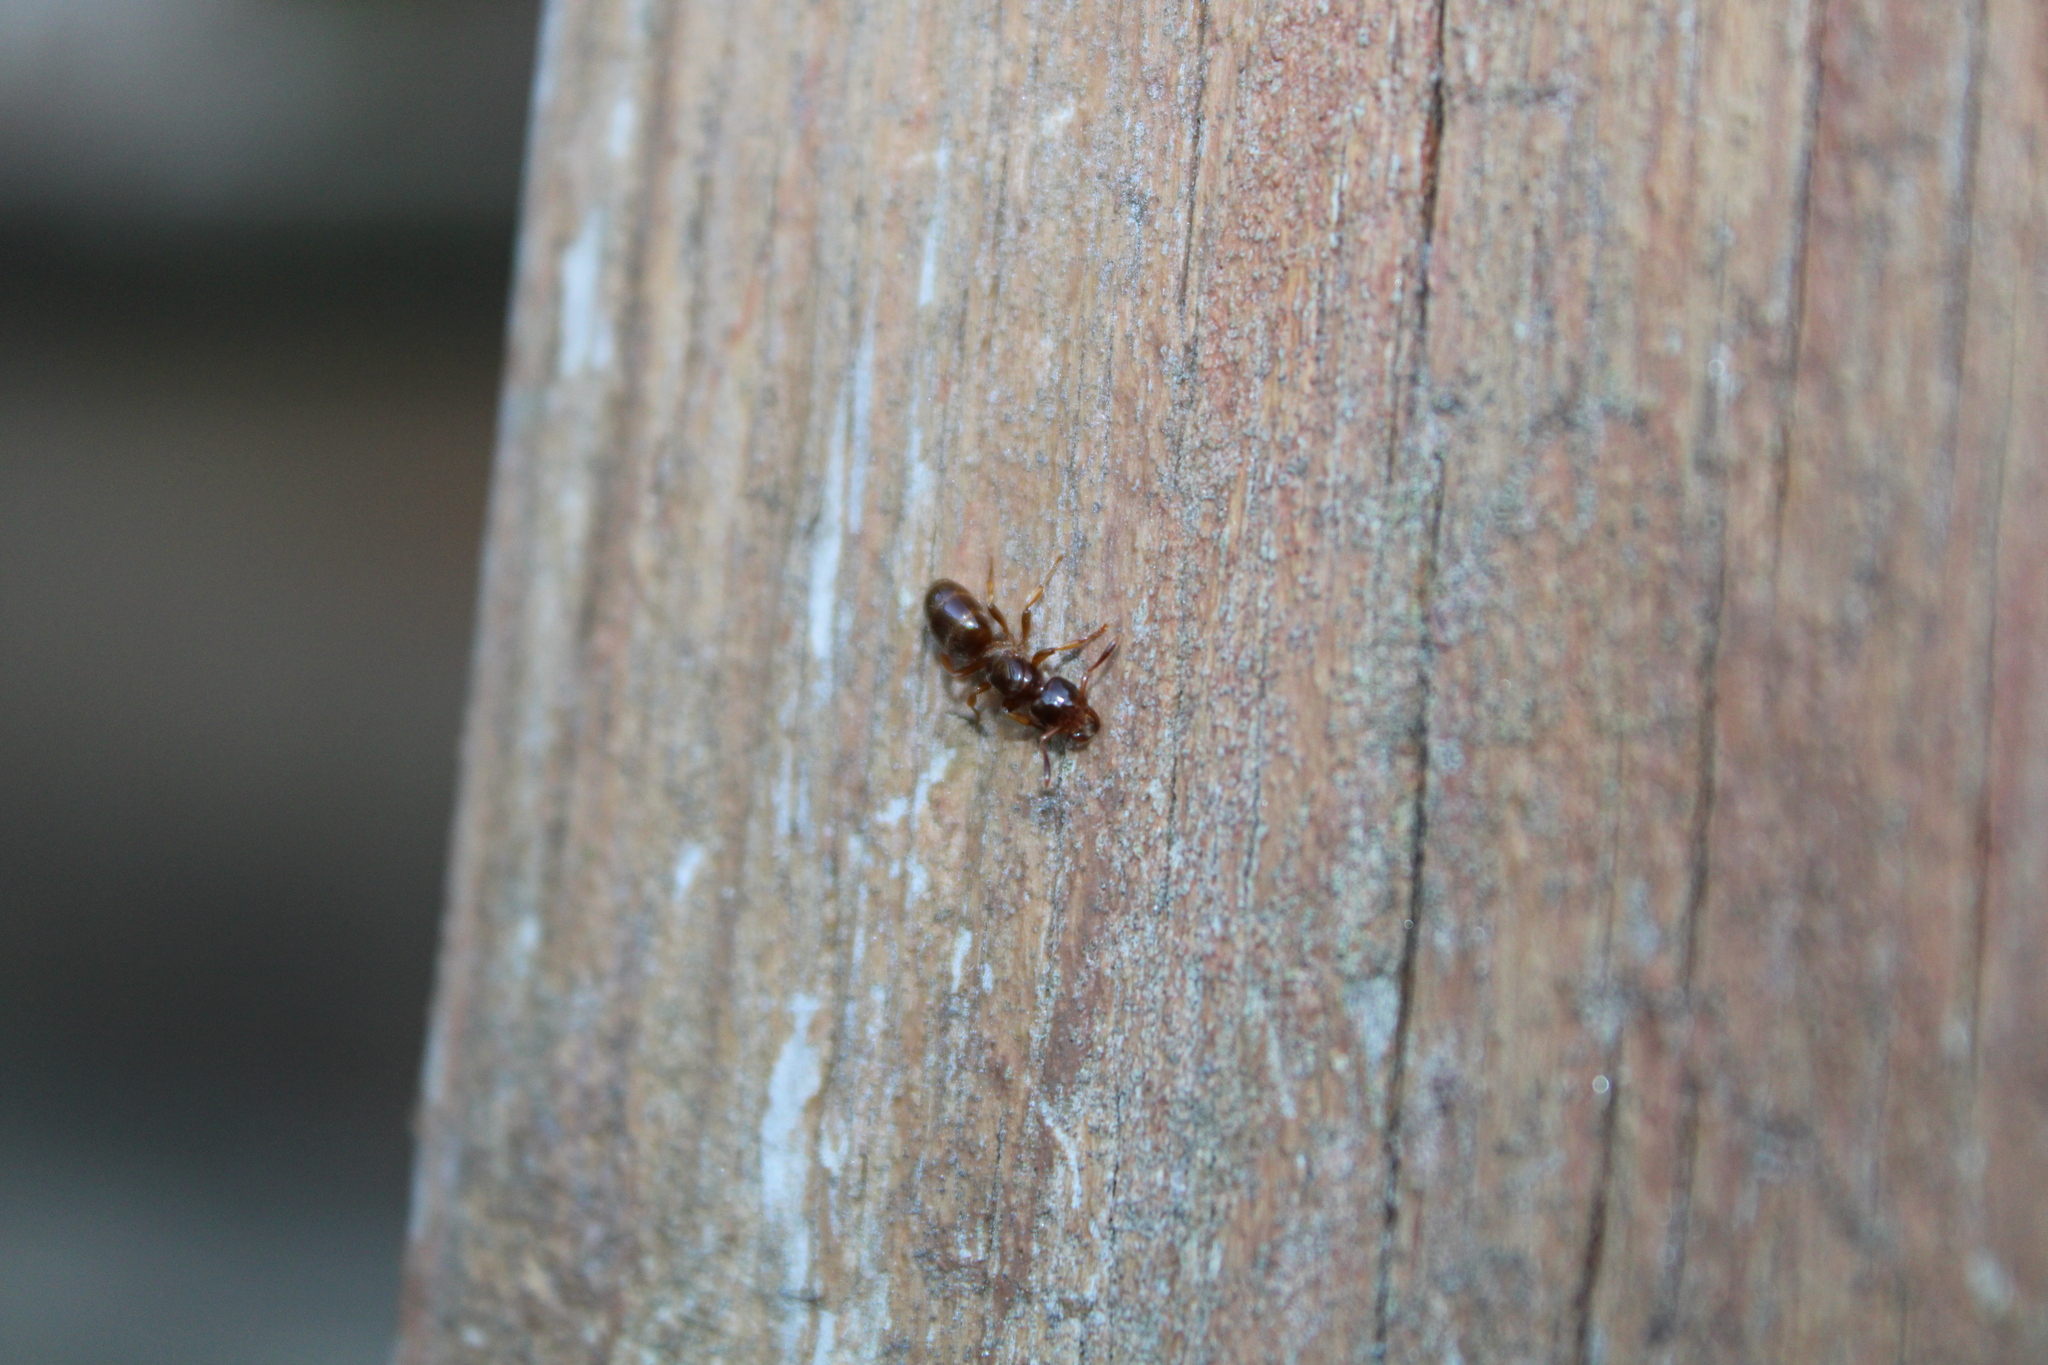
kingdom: Animalia
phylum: Arthropoda
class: Insecta
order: Hymenoptera
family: Formicidae
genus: Lasius
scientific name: Lasius claviger
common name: Common citronella ant
